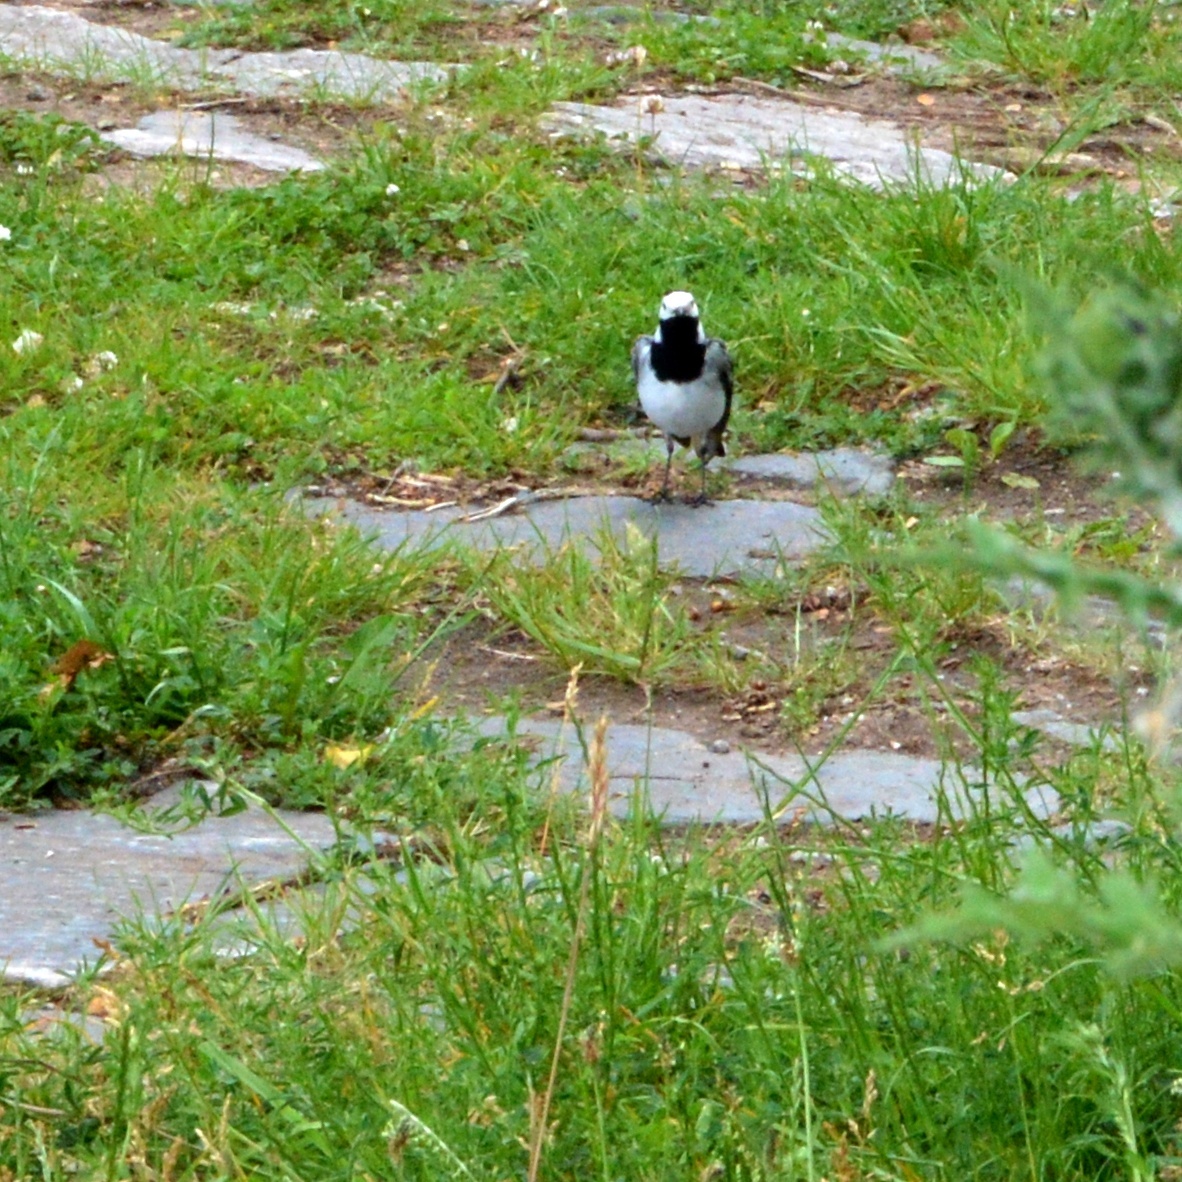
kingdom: Animalia
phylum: Chordata
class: Aves
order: Passeriformes
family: Motacillidae
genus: Motacilla
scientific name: Motacilla alba
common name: White wagtail
